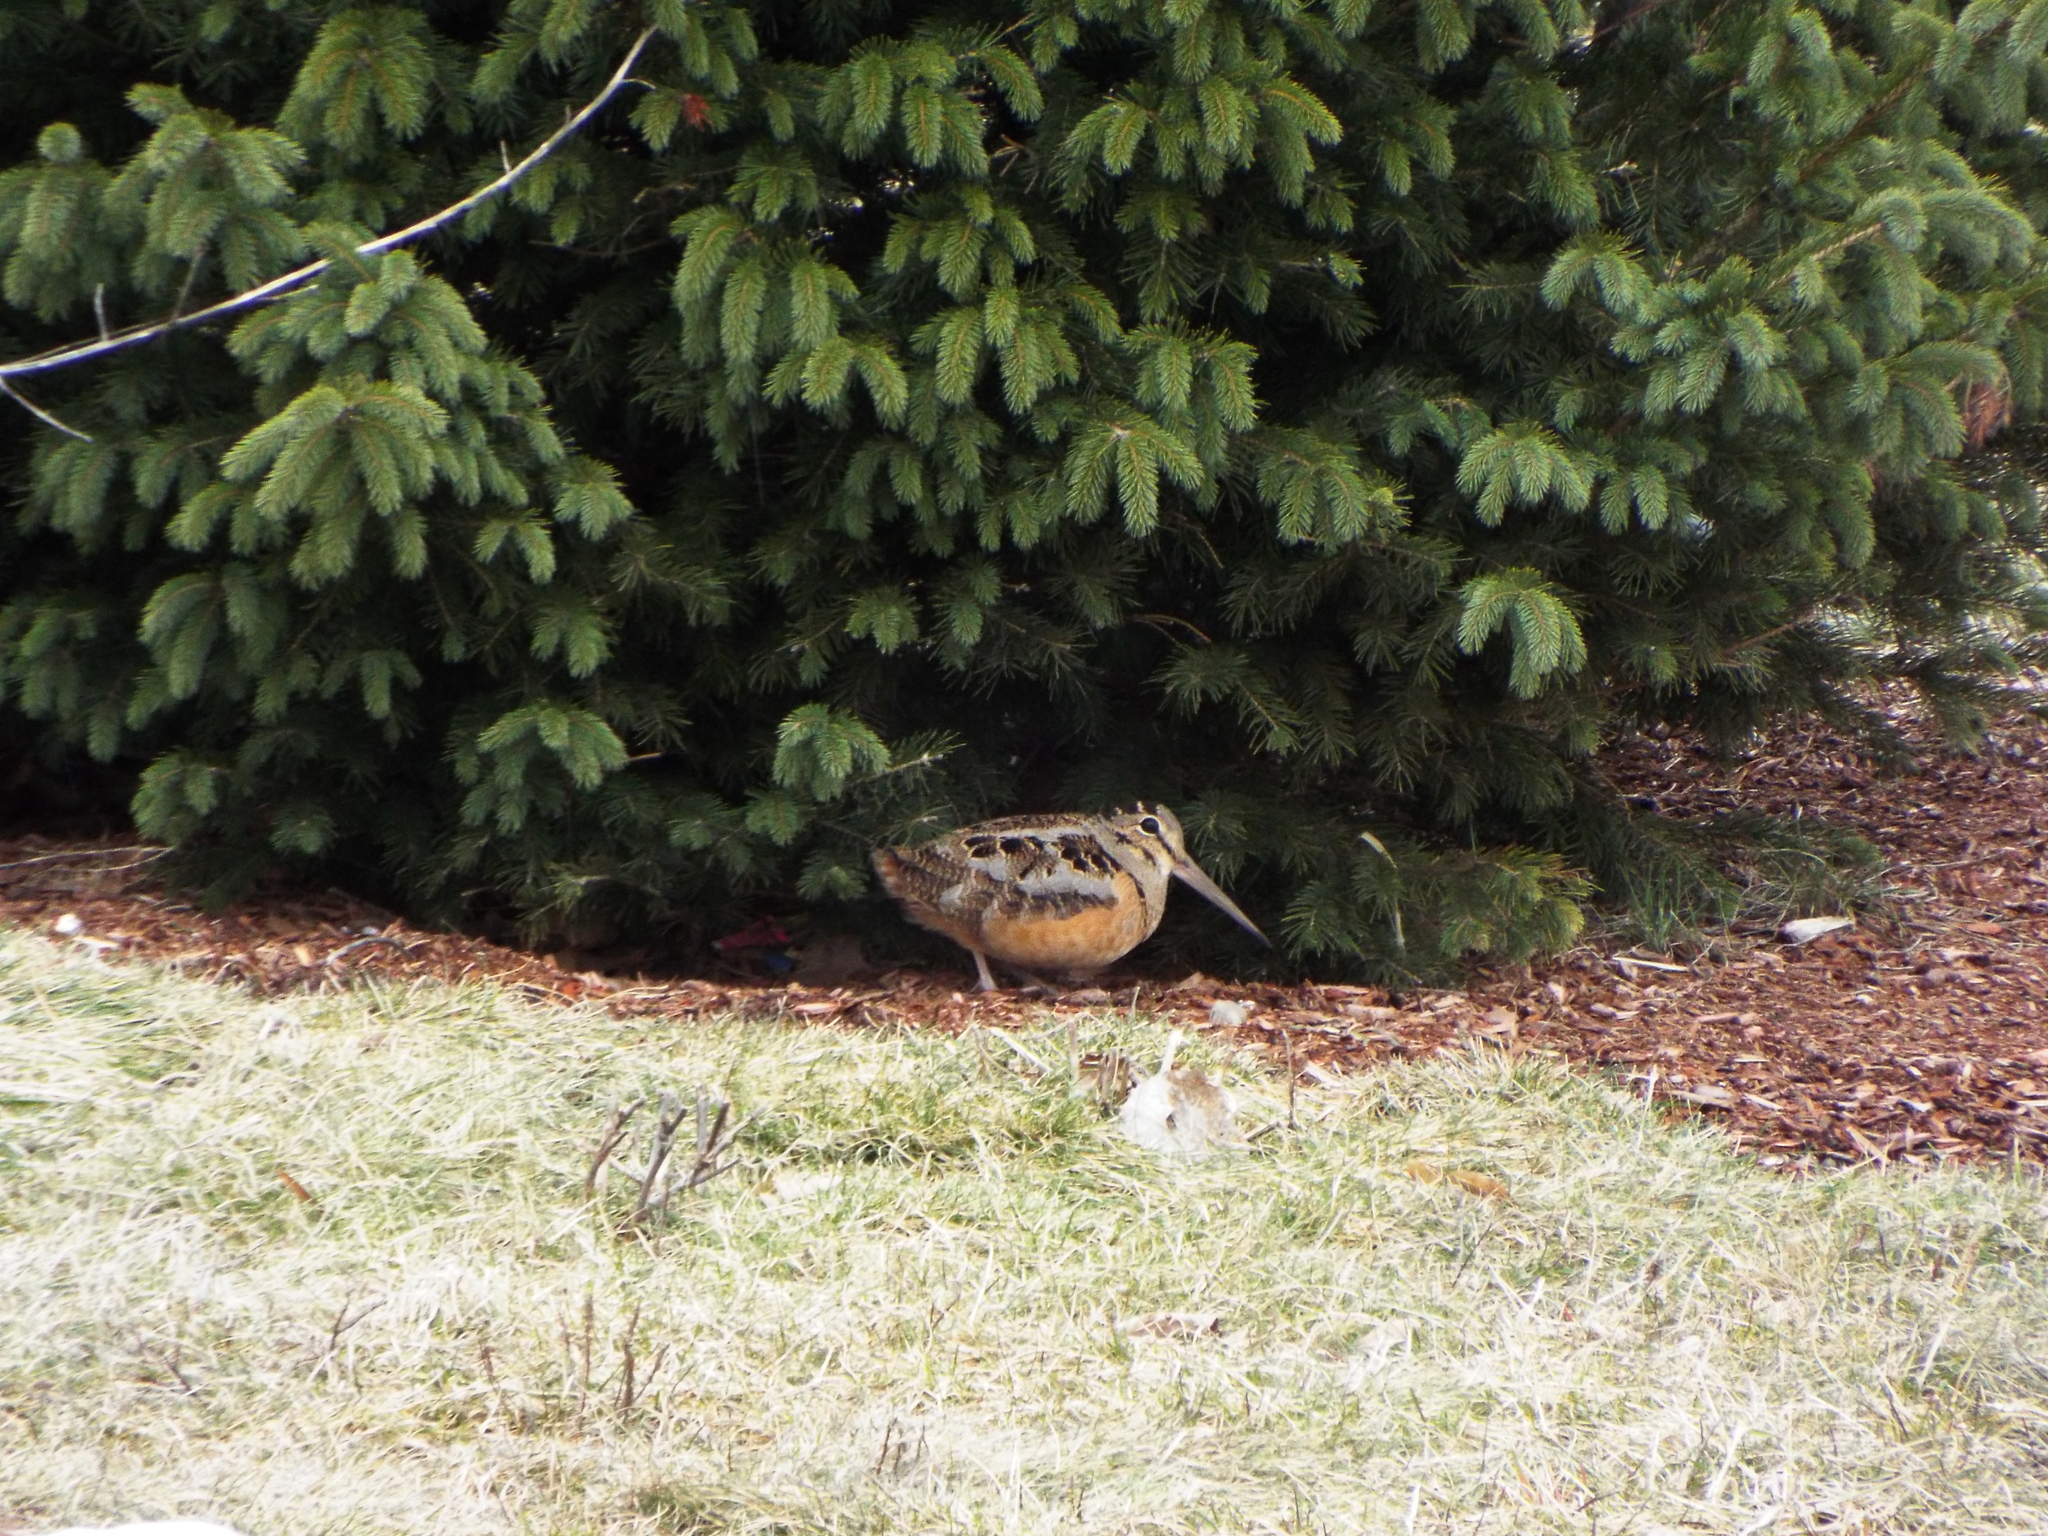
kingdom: Animalia
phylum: Chordata
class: Aves
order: Charadriiformes
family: Scolopacidae
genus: Scolopax
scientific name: Scolopax minor
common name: American woodcock
